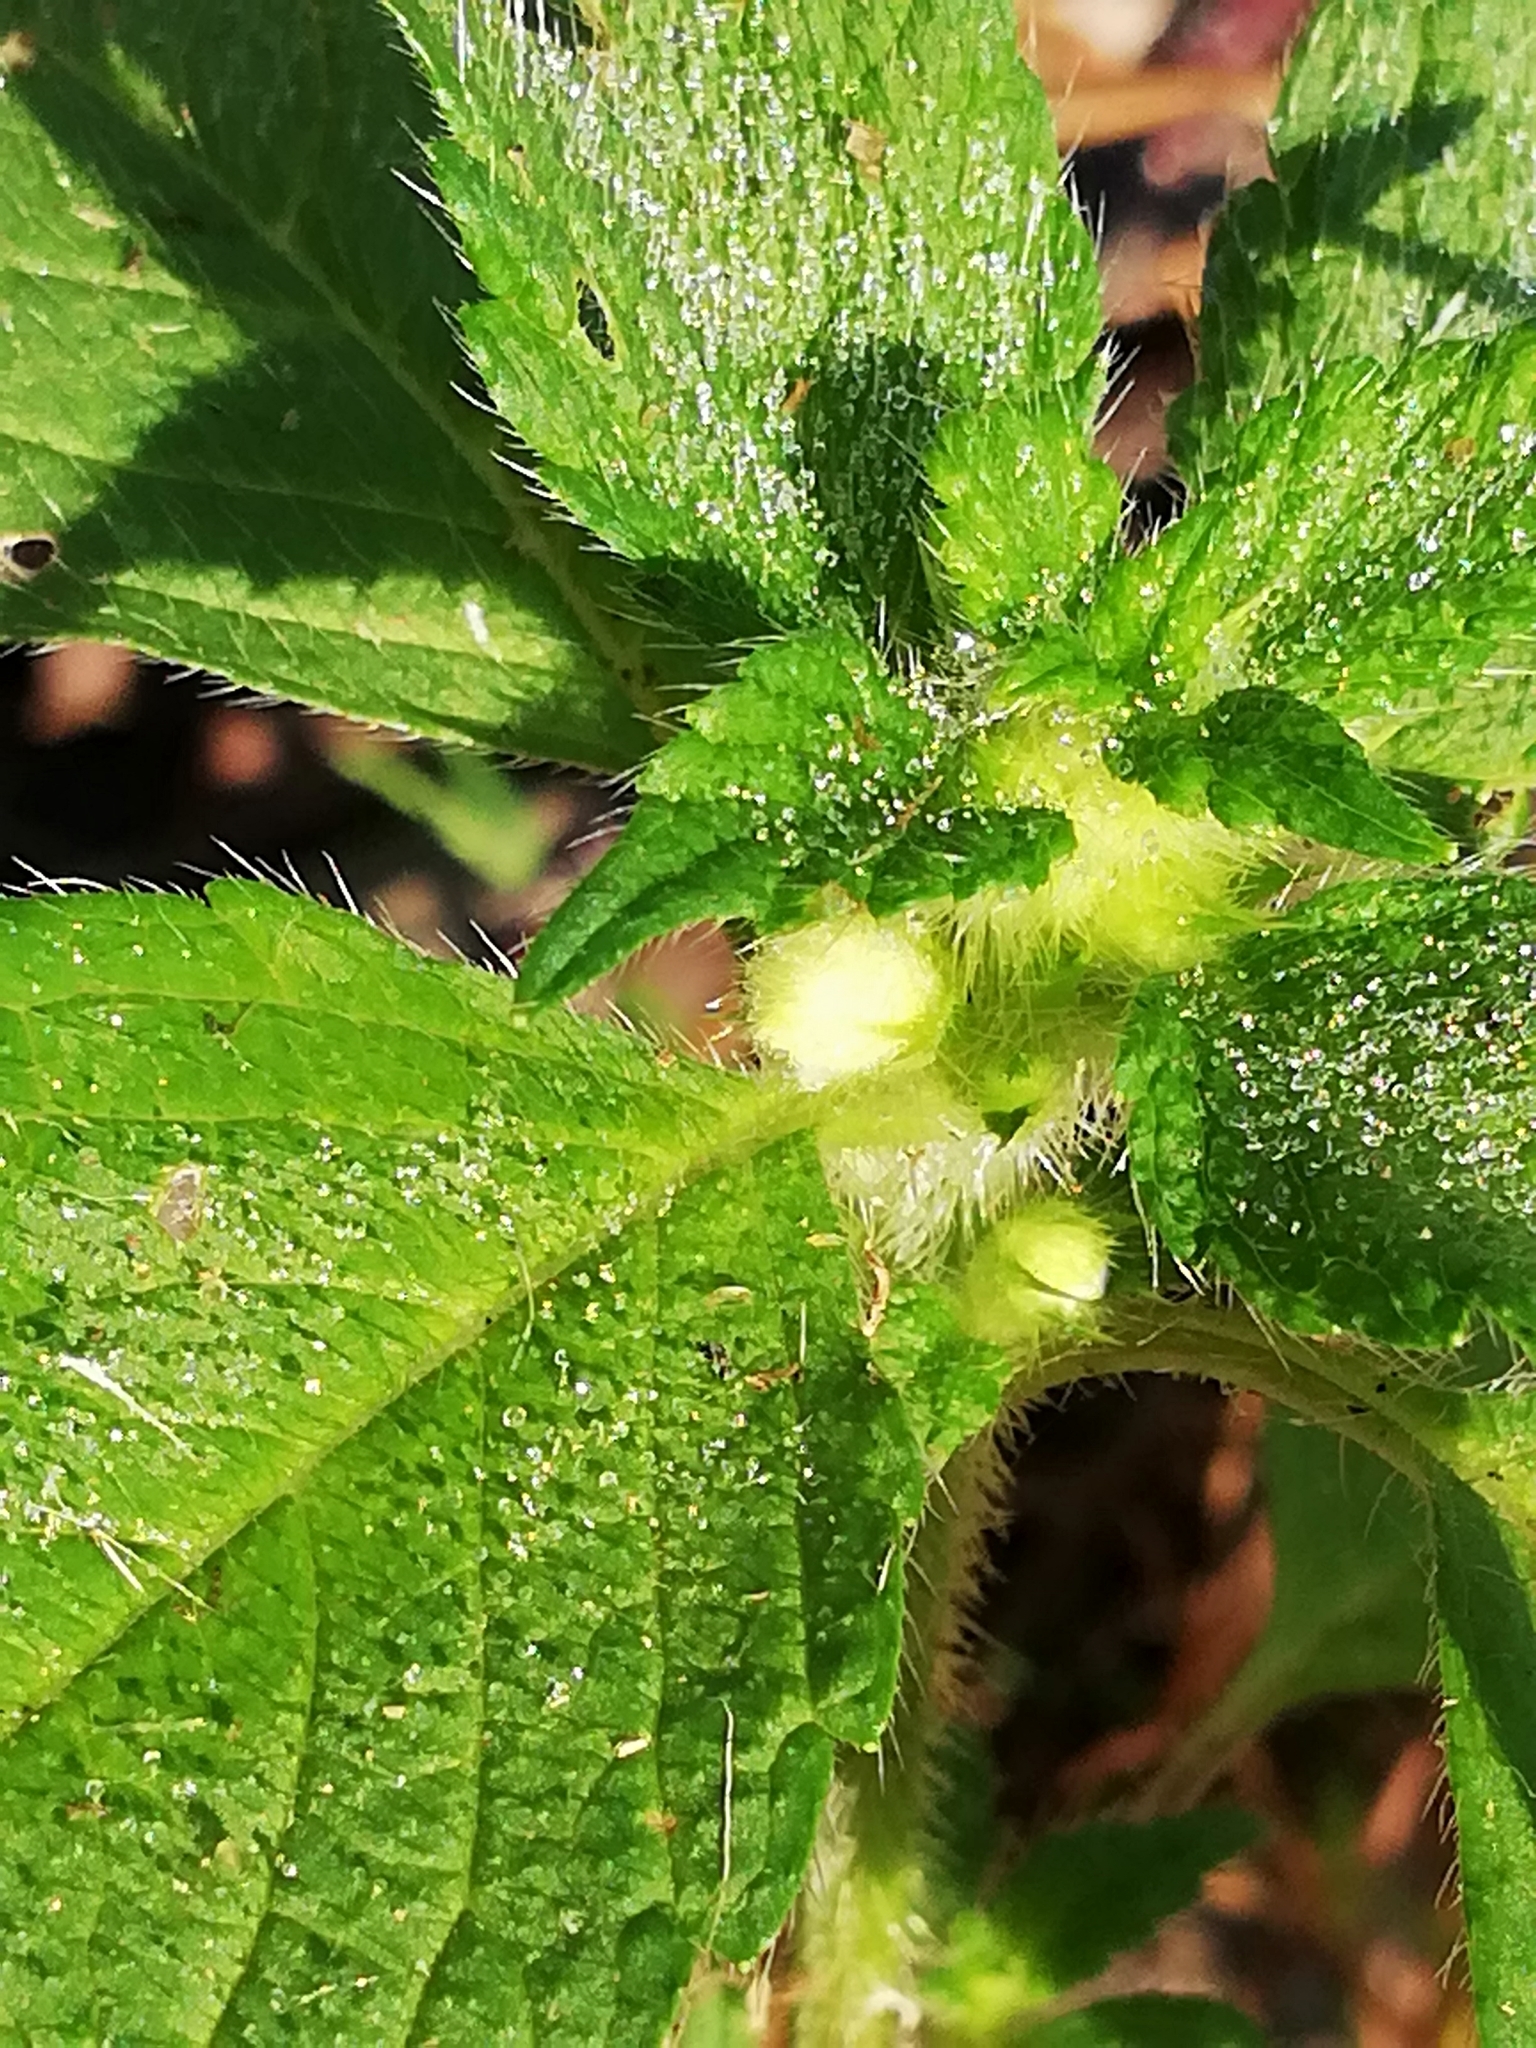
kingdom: Plantae
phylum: Tracheophyta
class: Magnoliopsida
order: Lamiales
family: Lamiaceae
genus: Galeopsis
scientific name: Galeopsis speciosa
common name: Large-flowered hemp-nettle
